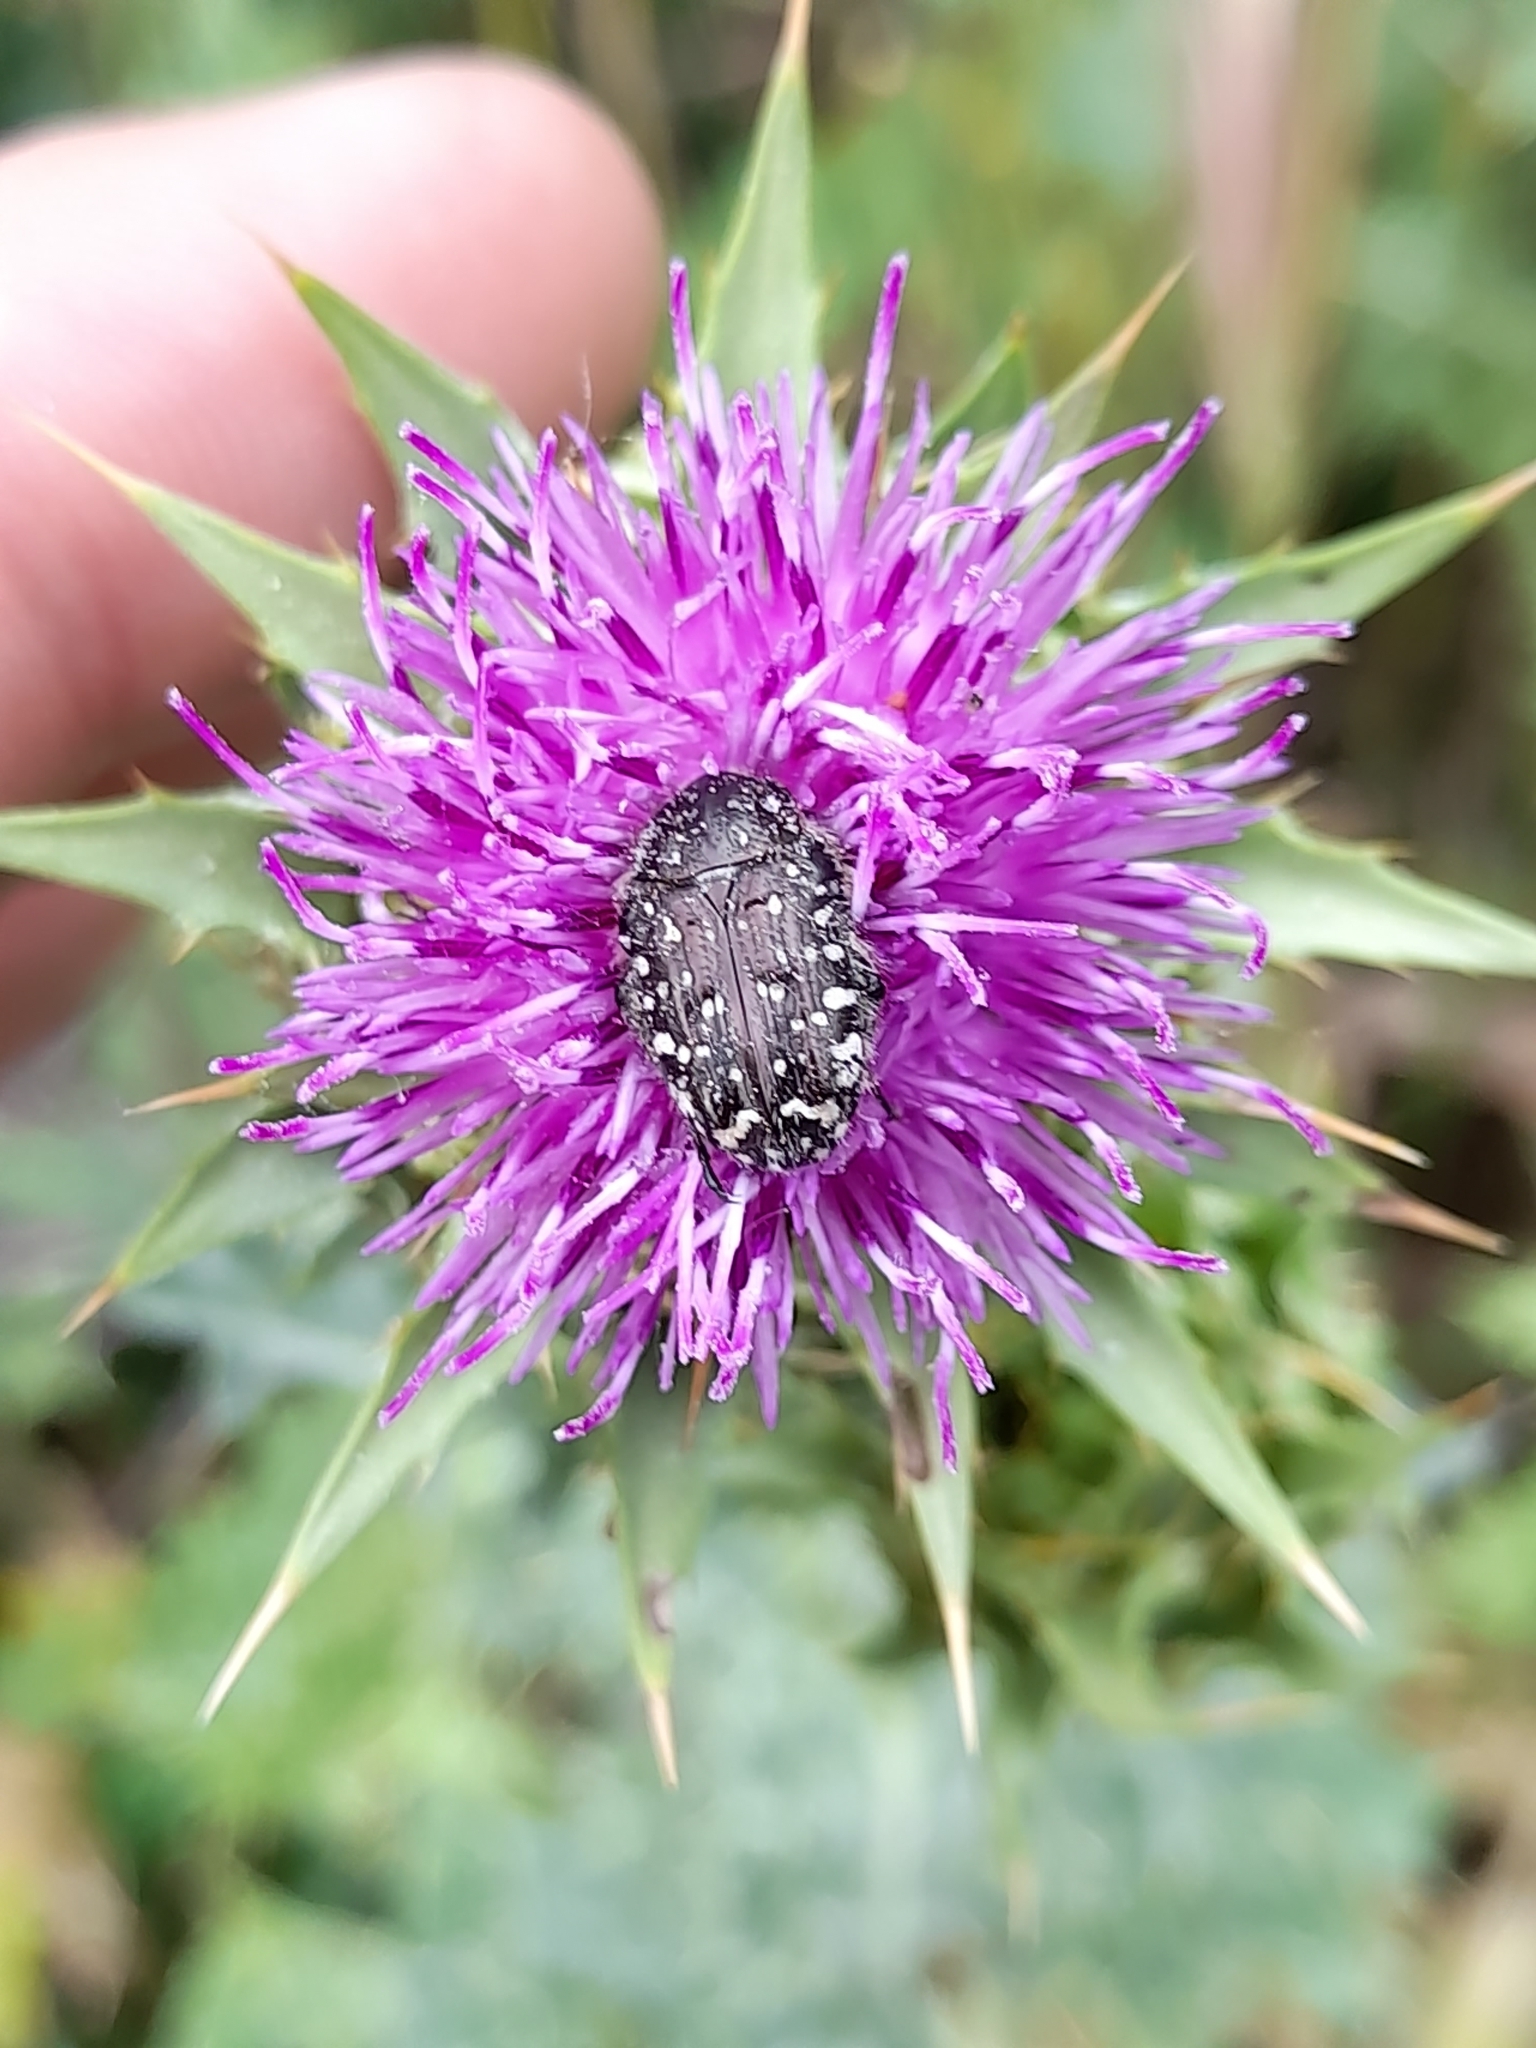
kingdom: Animalia
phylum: Arthropoda
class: Insecta
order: Coleoptera
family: Scarabaeidae
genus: Oxythyrea
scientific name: Oxythyrea funesta
